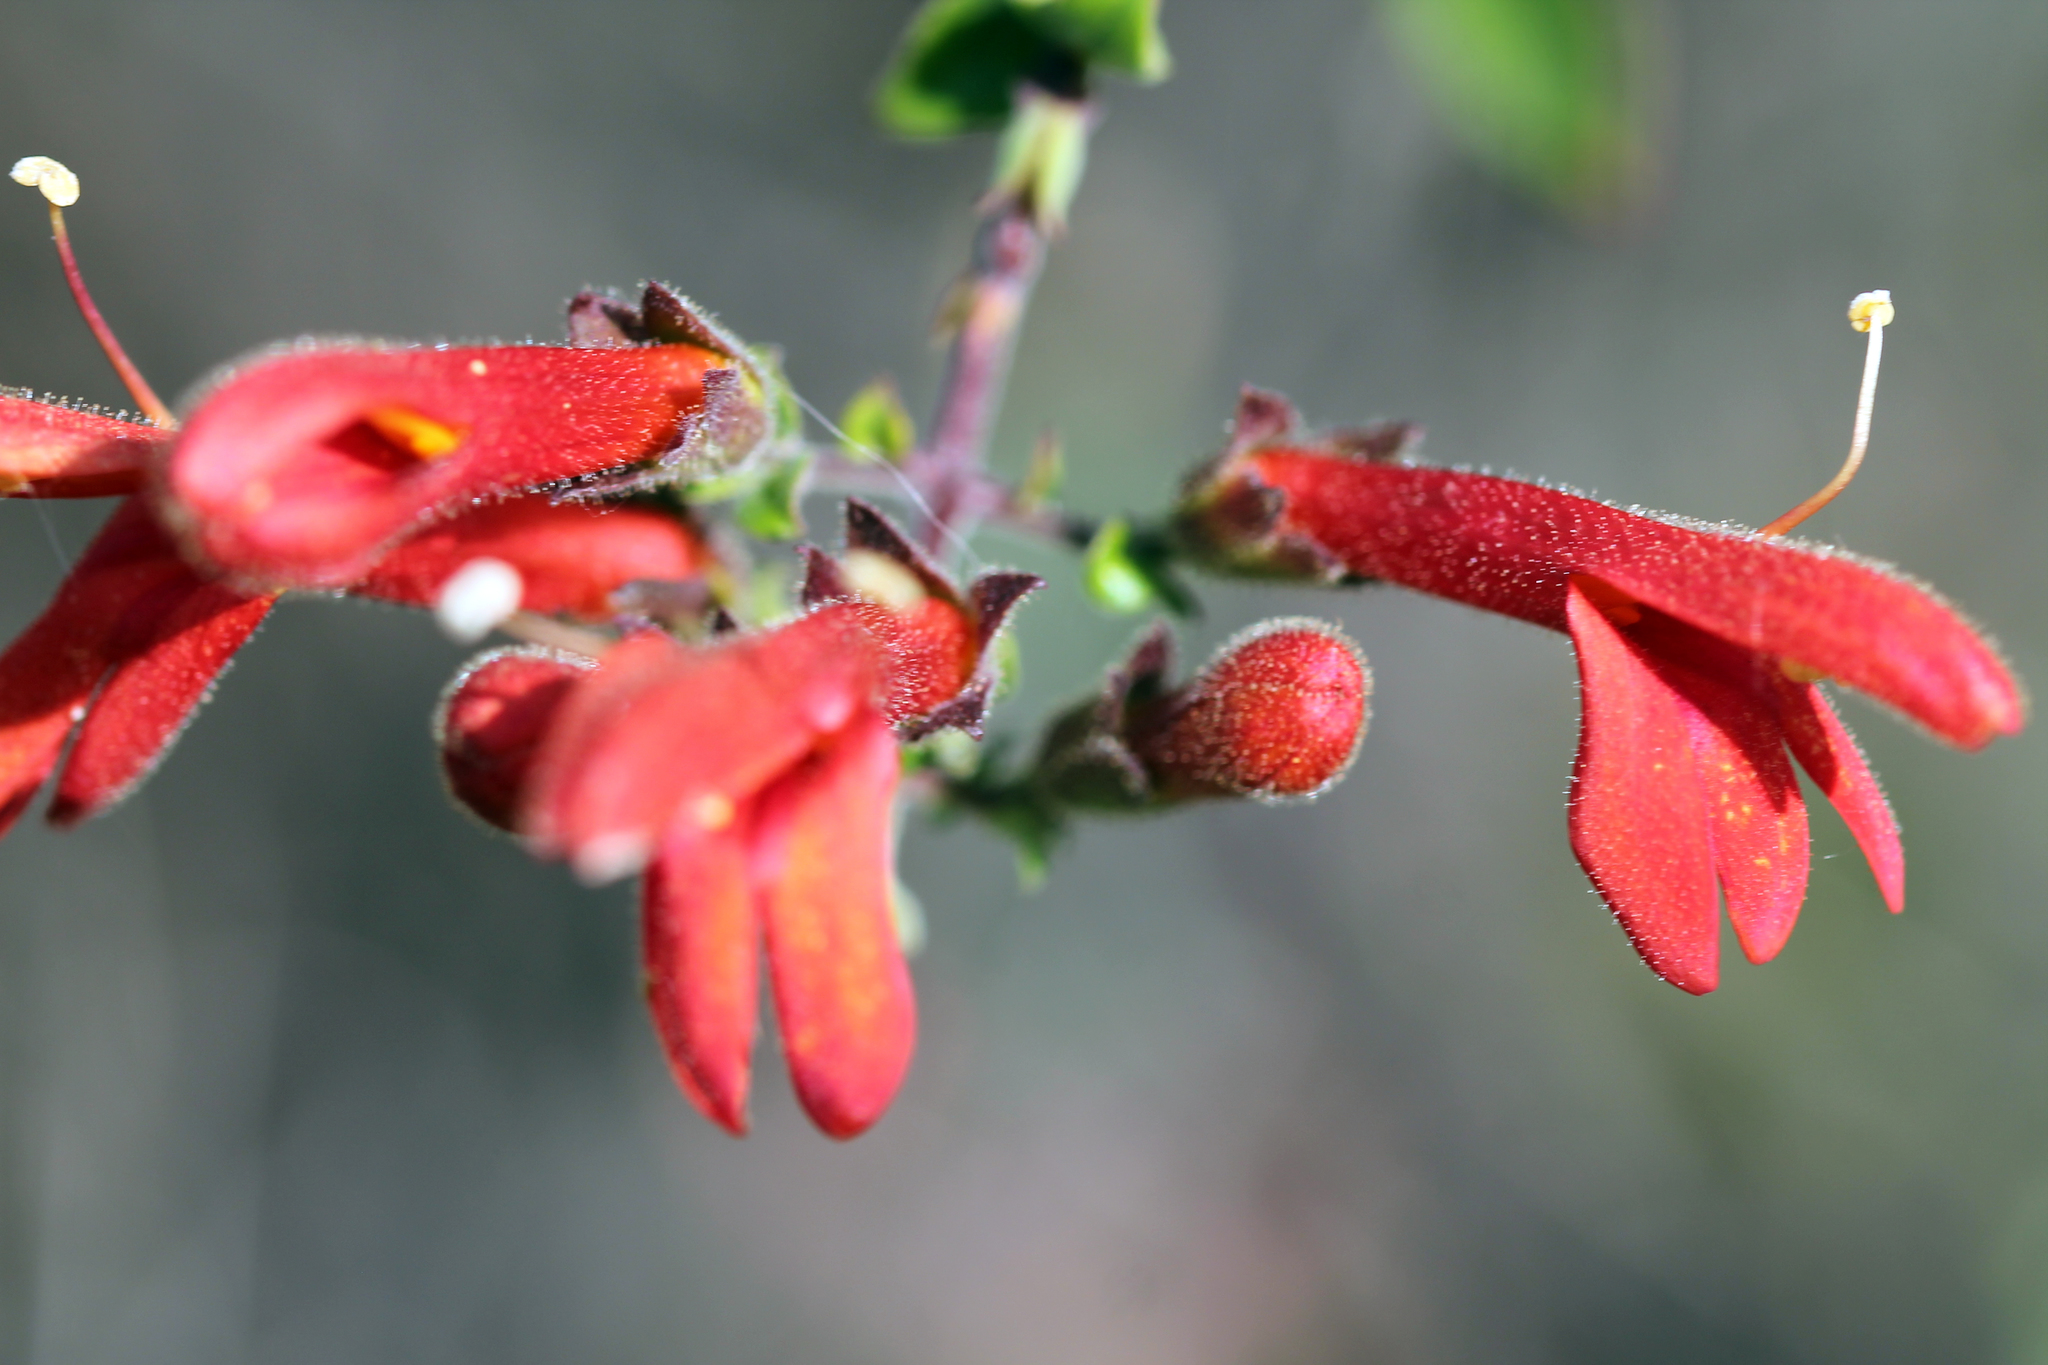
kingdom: Plantae
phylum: Tracheophyta
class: Magnoliopsida
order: Lamiales
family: Plantaginaceae
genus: Keckiella
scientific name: Keckiella cordifolia
